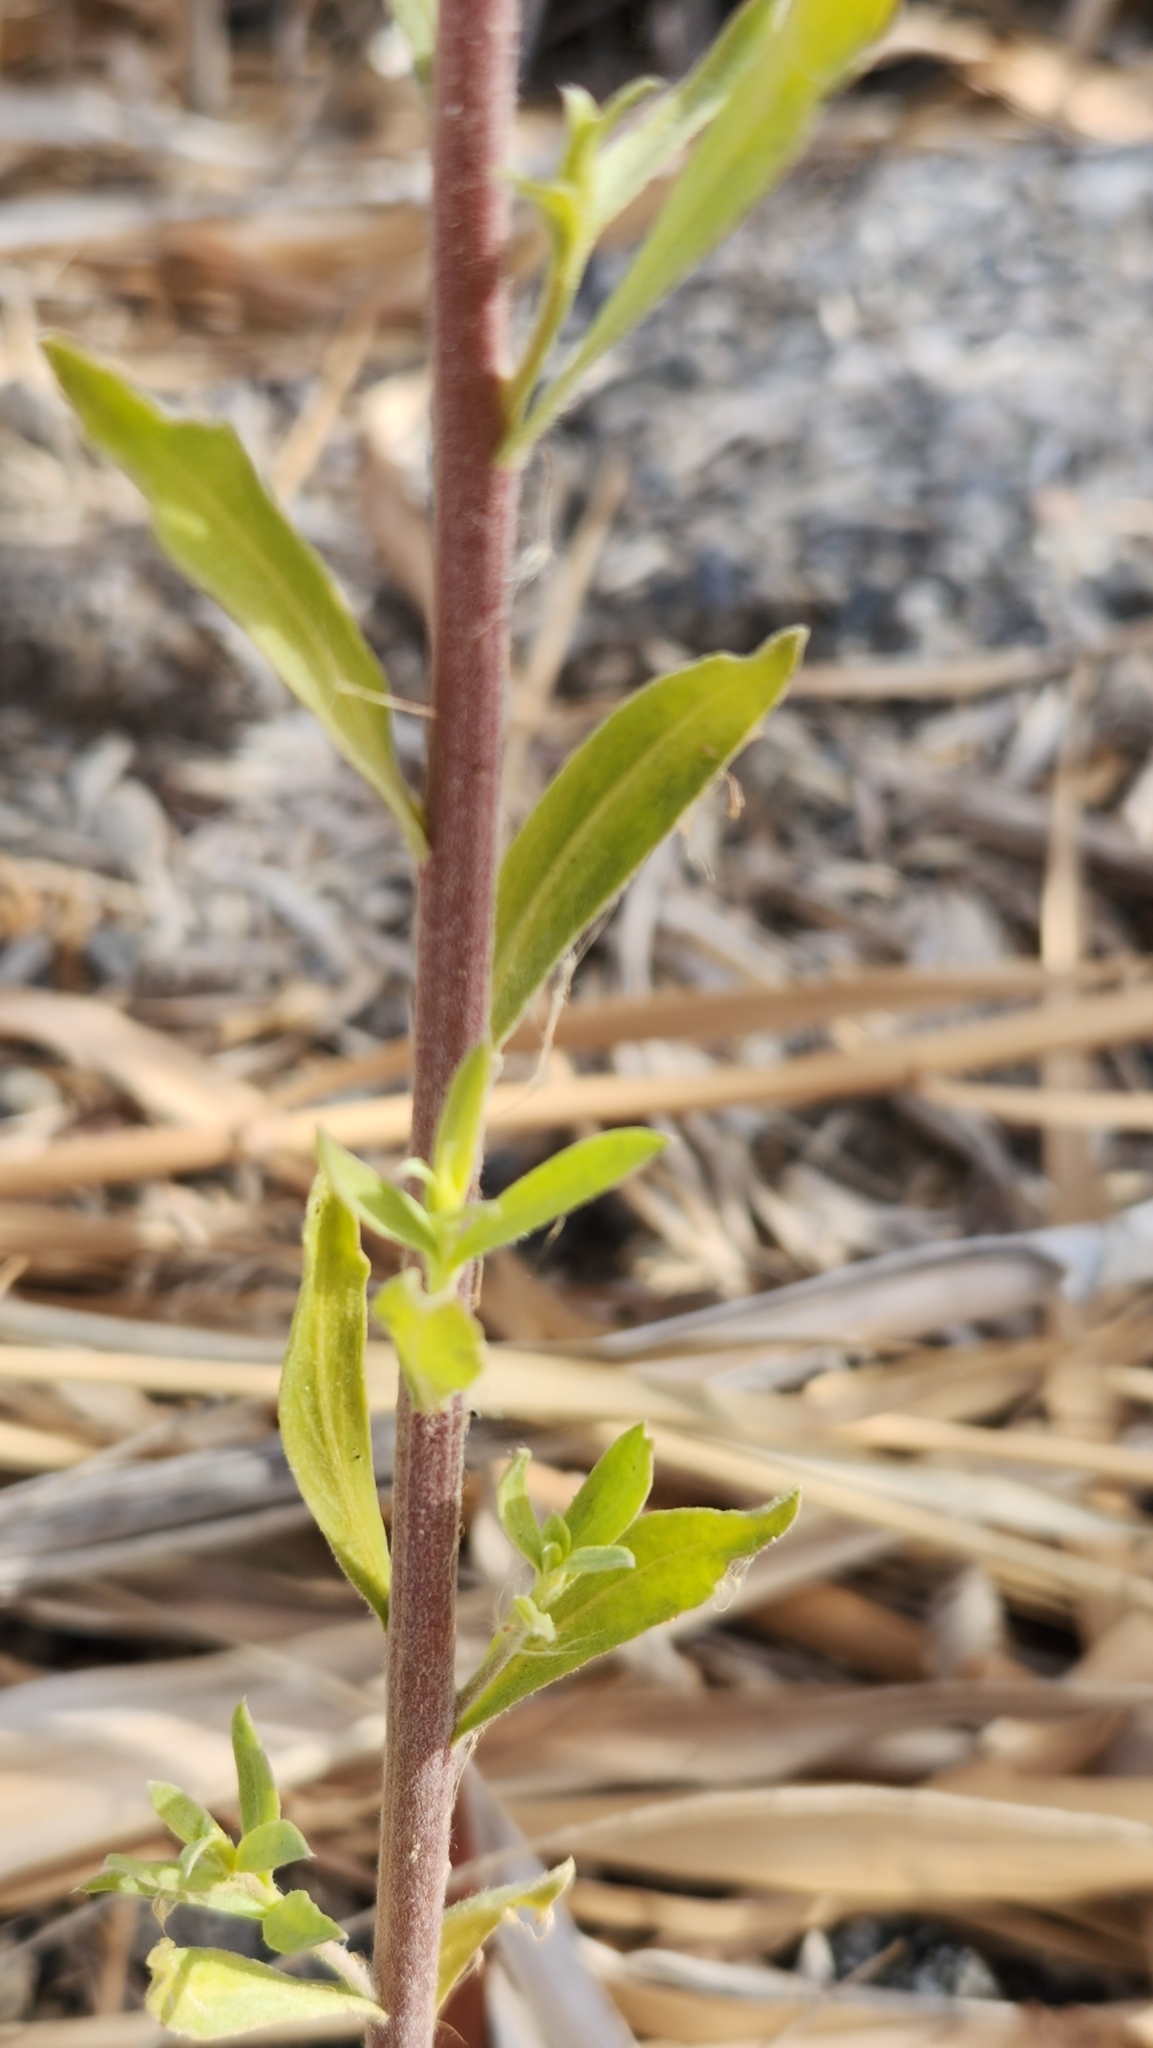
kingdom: Plantae
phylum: Tracheophyta
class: Magnoliopsida
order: Asterales
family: Asteraceae
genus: Pluchea
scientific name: Pluchea sericea
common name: Arrow-weed
